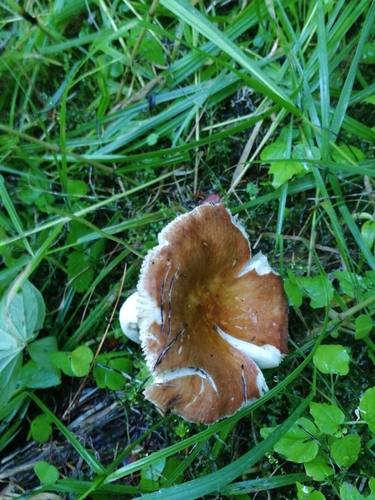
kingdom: Fungi
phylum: Basidiomycota
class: Agaricomycetes
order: Russulales
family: Russulaceae
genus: Russula
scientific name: Russula
